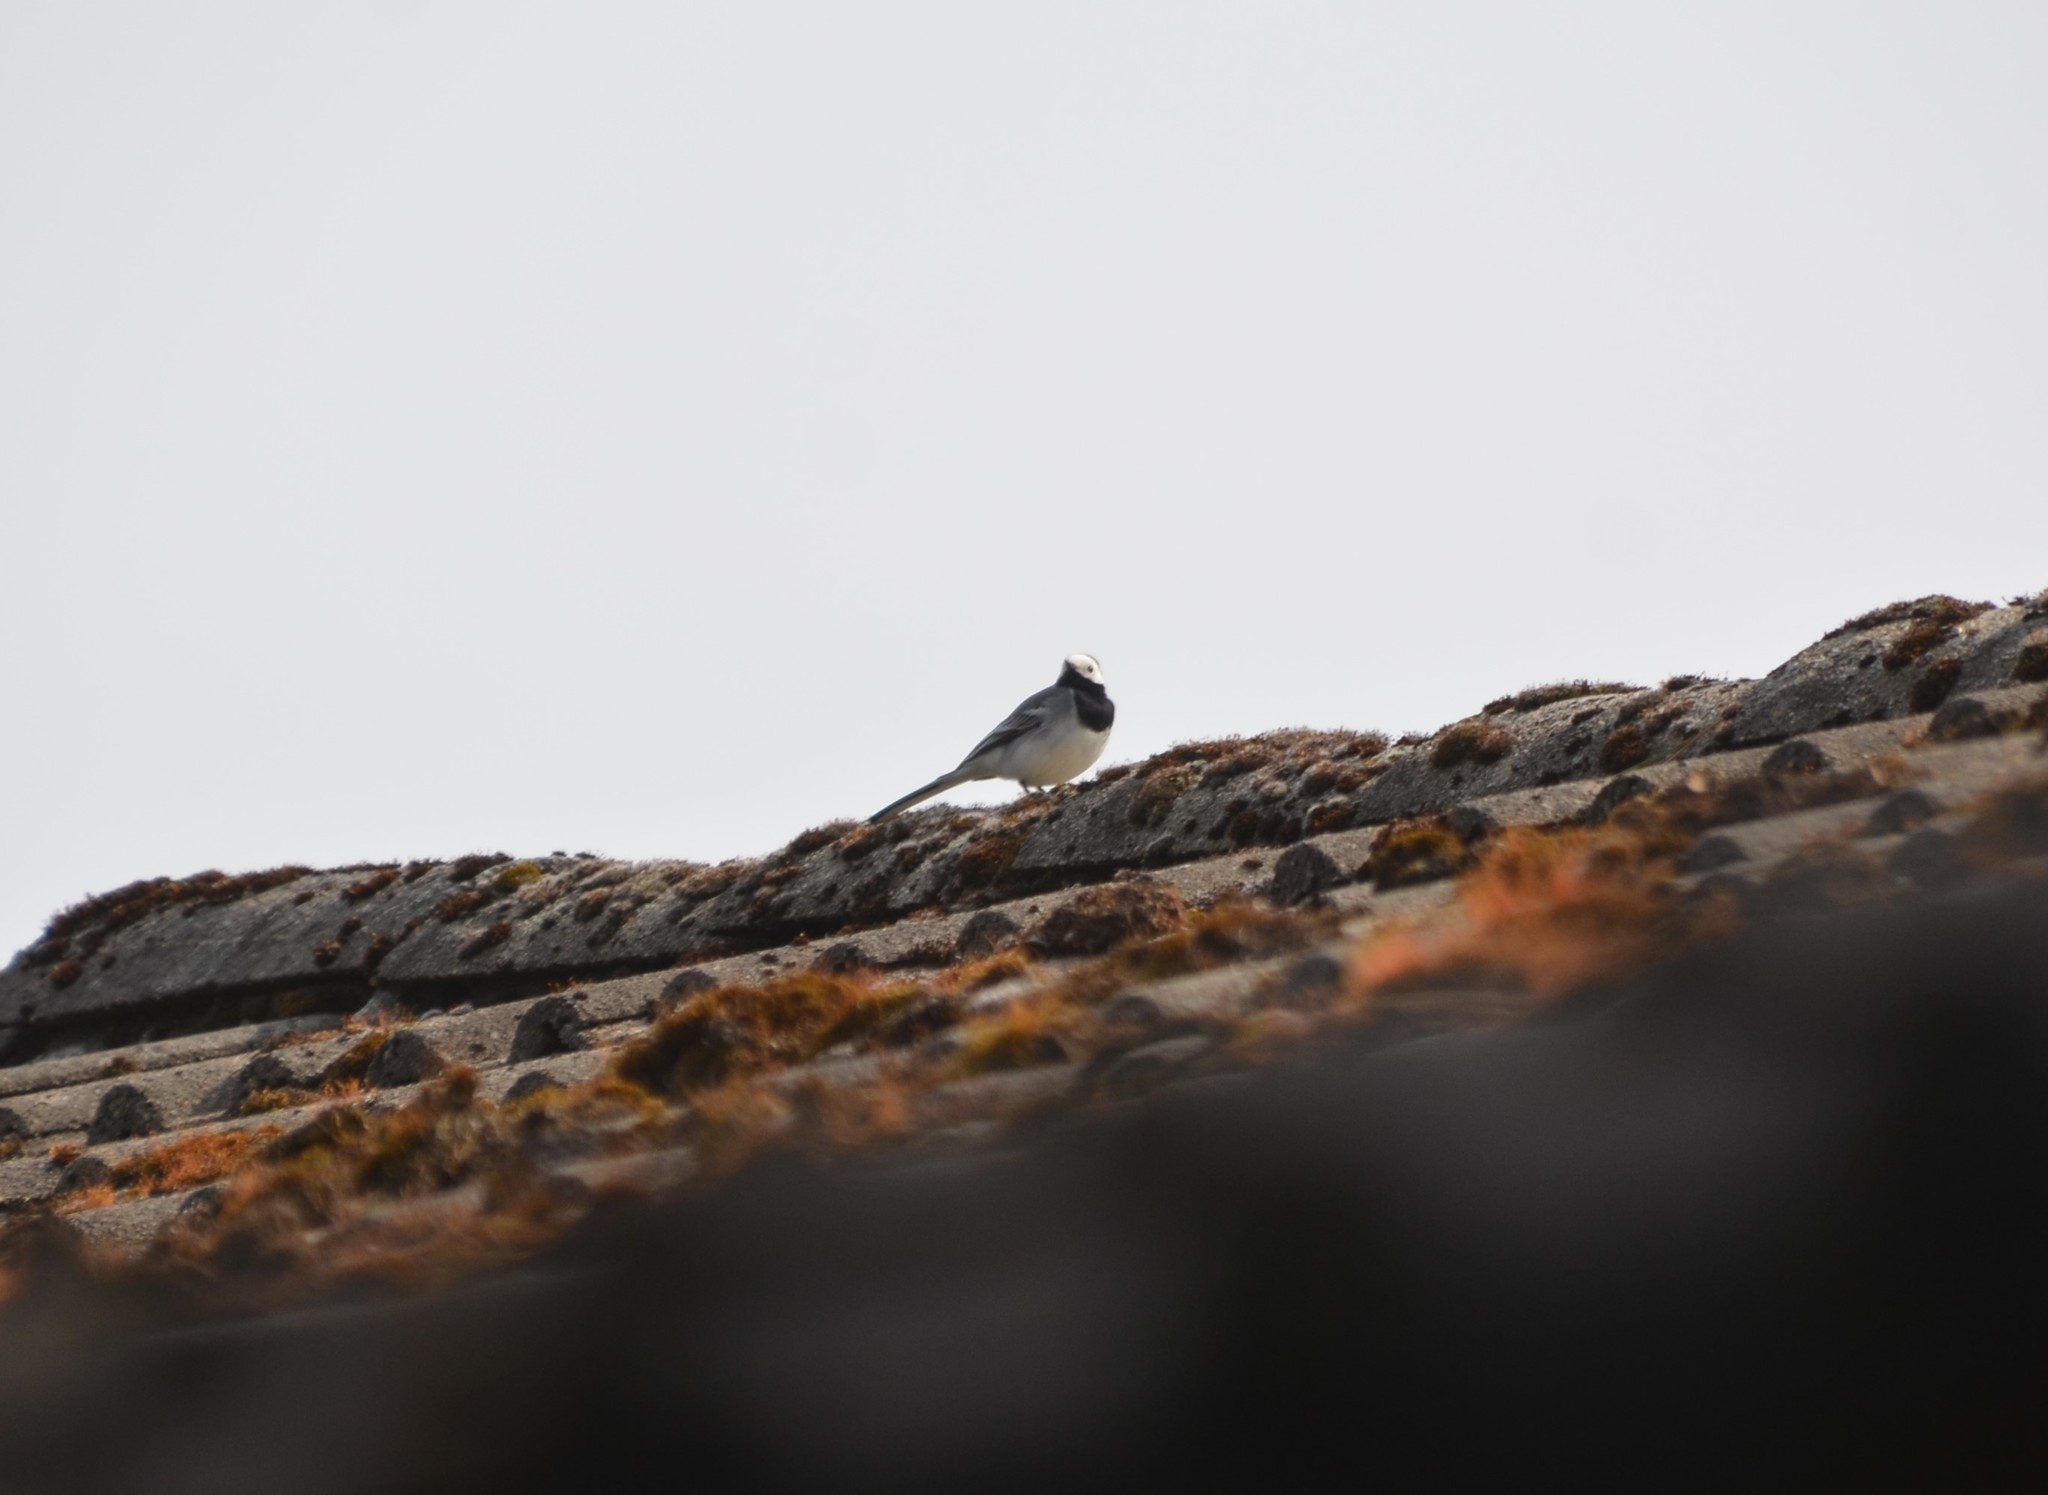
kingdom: Animalia
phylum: Chordata
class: Aves
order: Passeriformes
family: Motacillidae
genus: Motacilla
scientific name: Motacilla alba
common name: White wagtail
